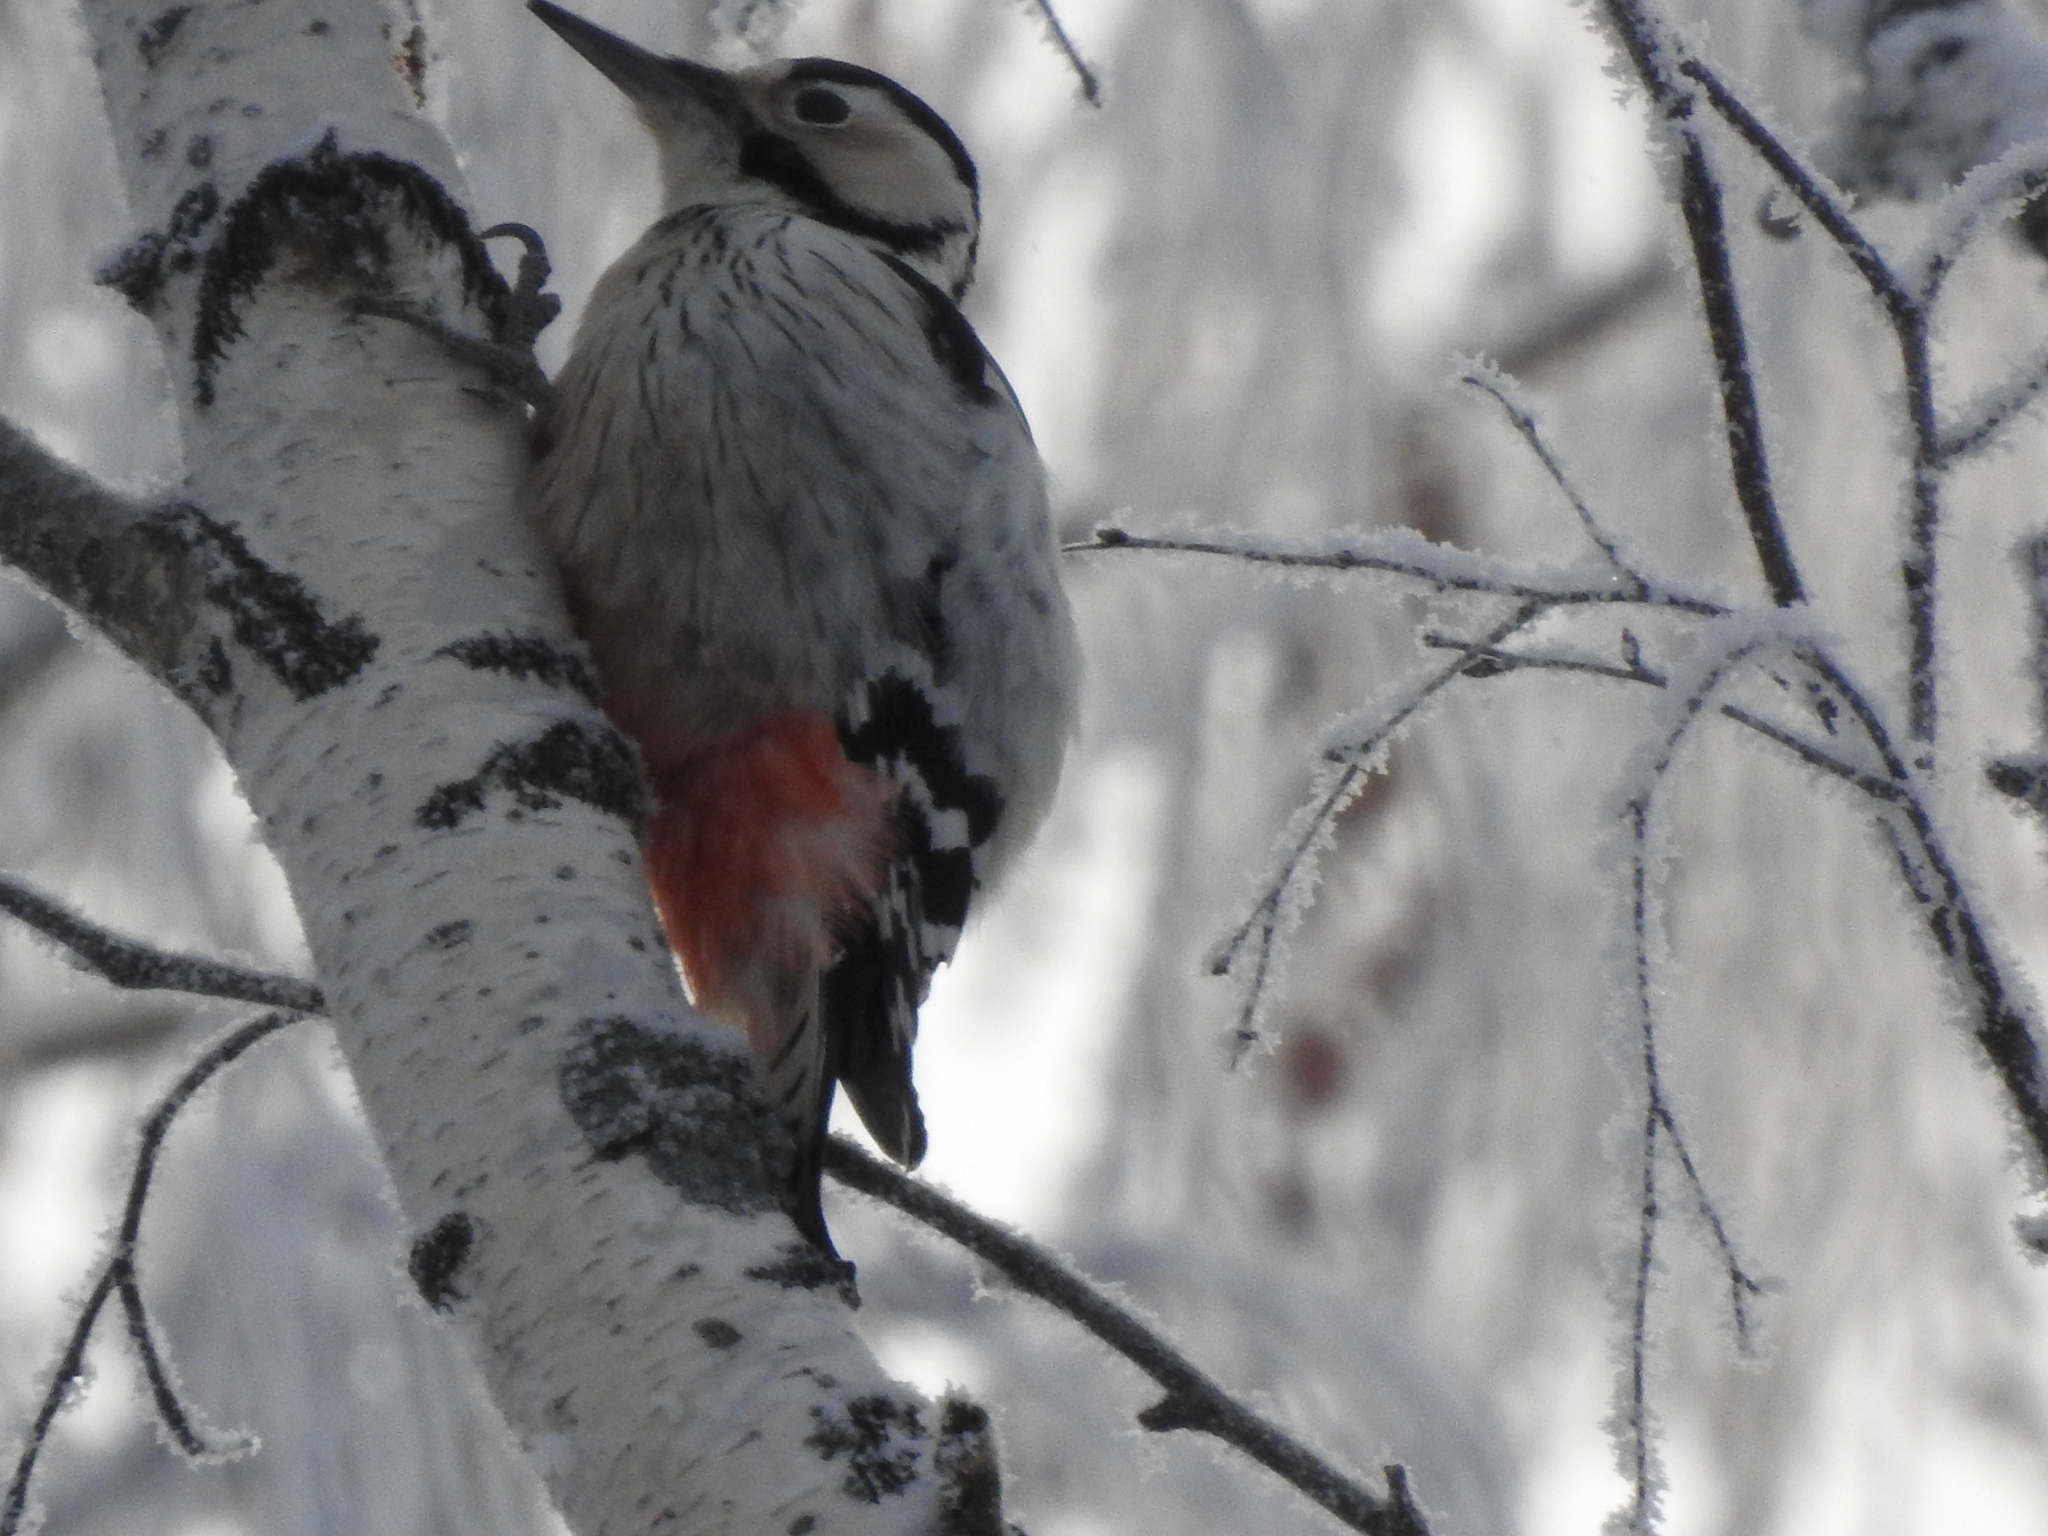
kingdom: Animalia
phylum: Chordata
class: Aves
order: Piciformes
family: Picidae
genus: Dendrocopos
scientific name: Dendrocopos leucotos
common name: White-backed woodpecker
